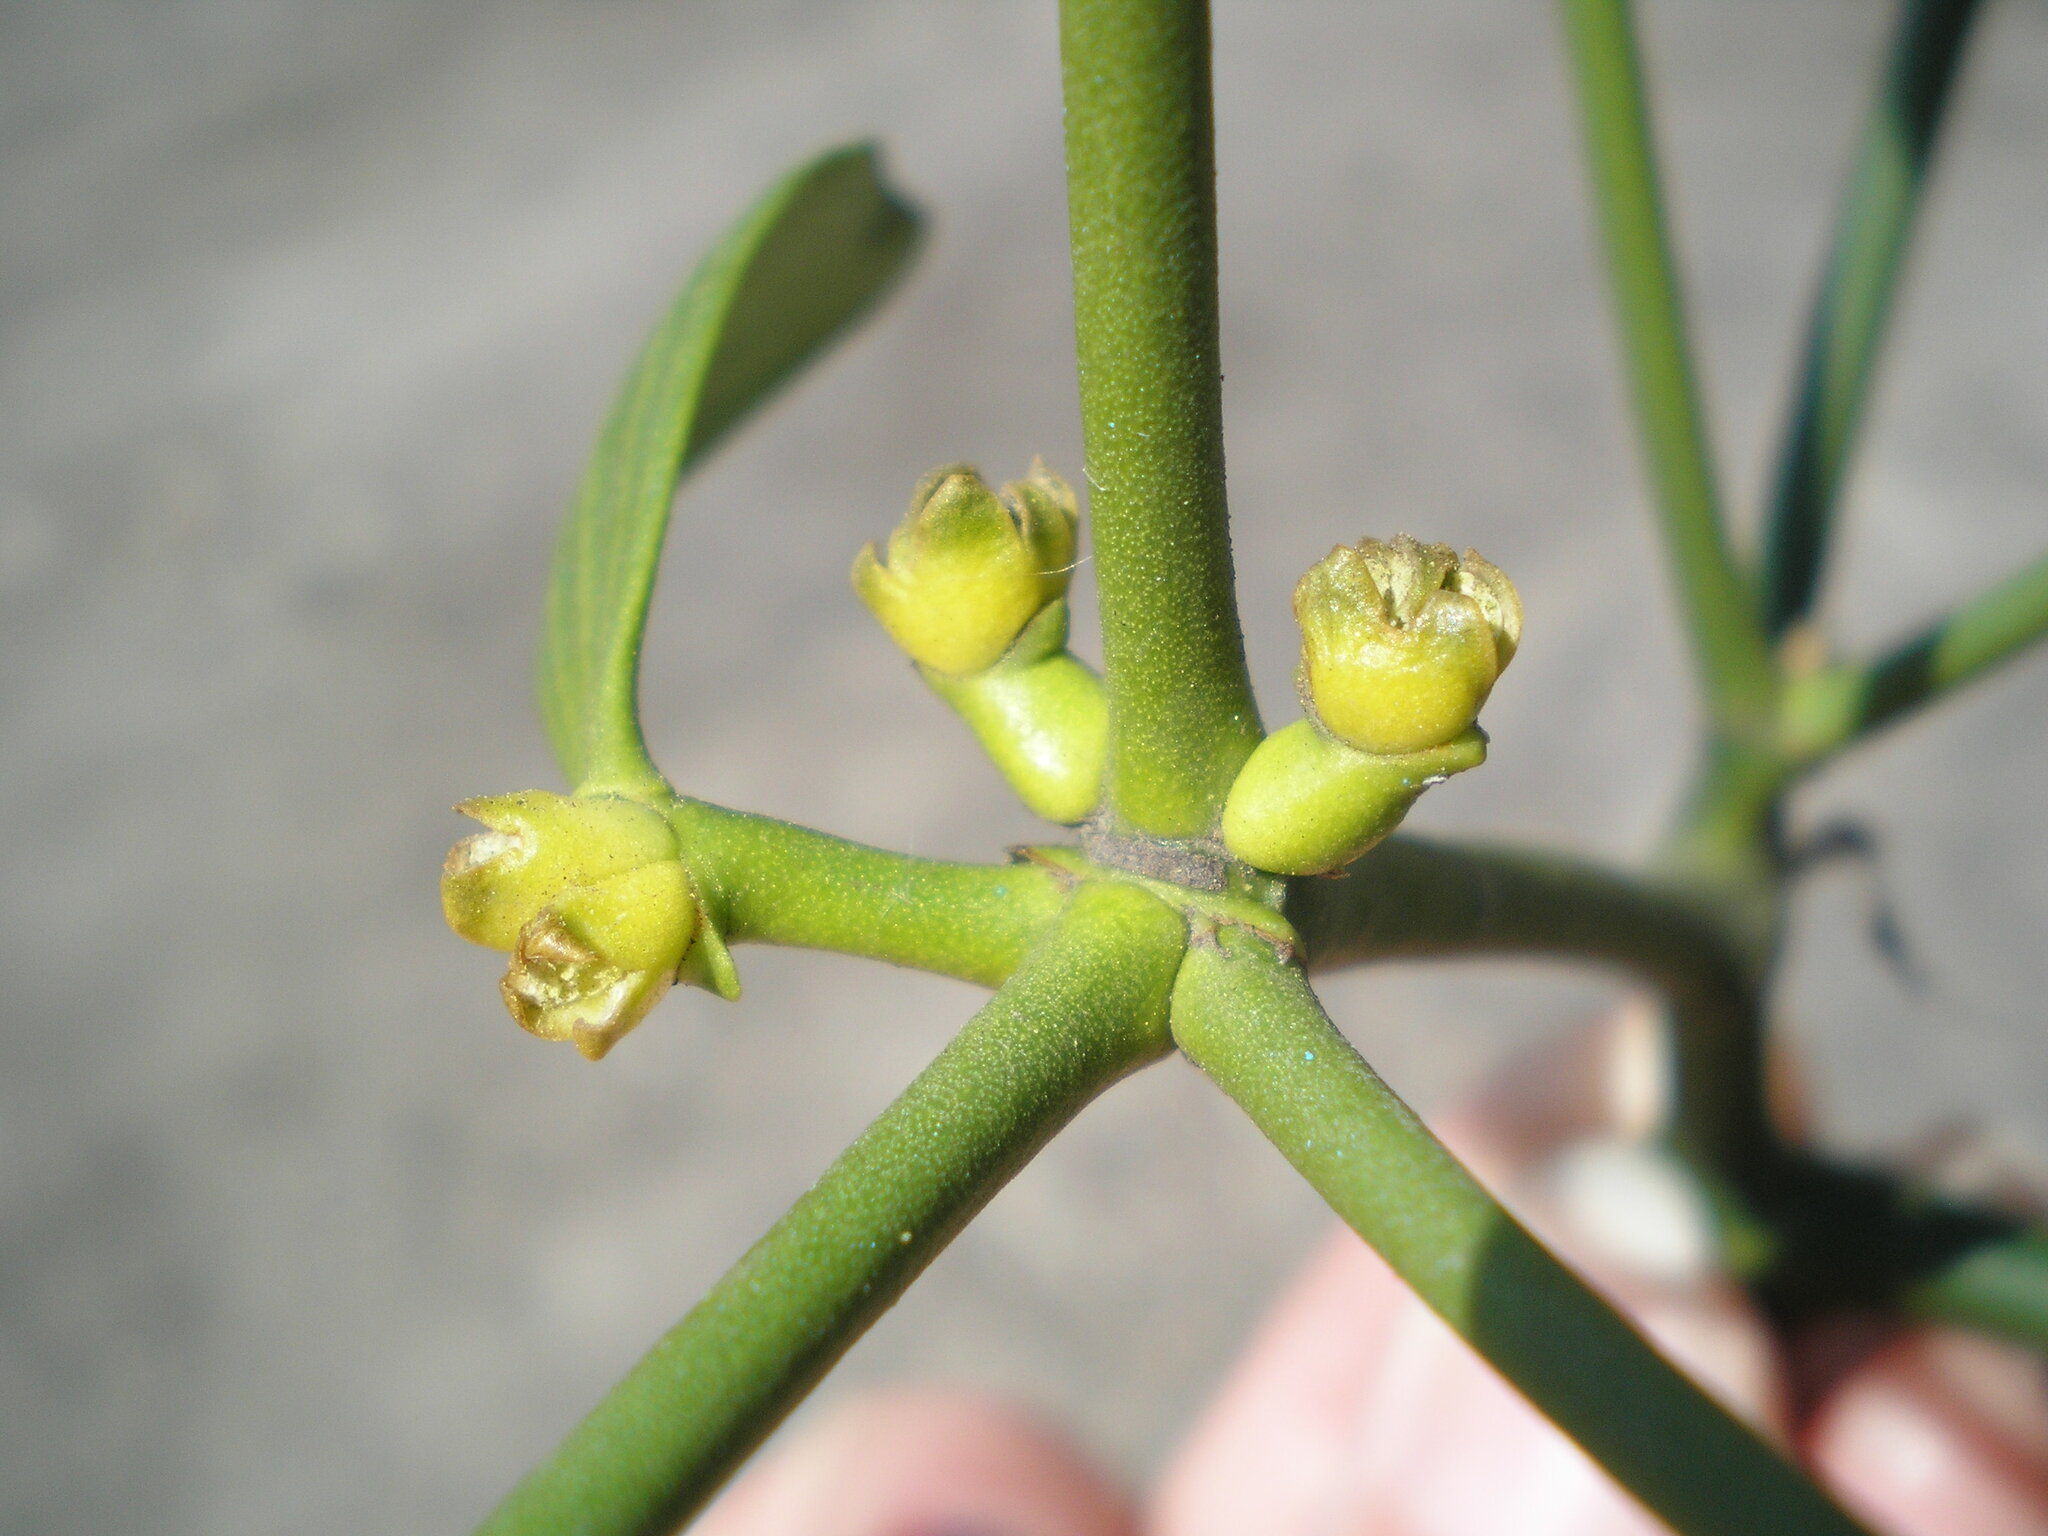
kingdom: Plantae
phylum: Tracheophyta
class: Magnoliopsida
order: Santalales
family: Viscaceae
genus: Viscum
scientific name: Viscum album
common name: Mistletoe
